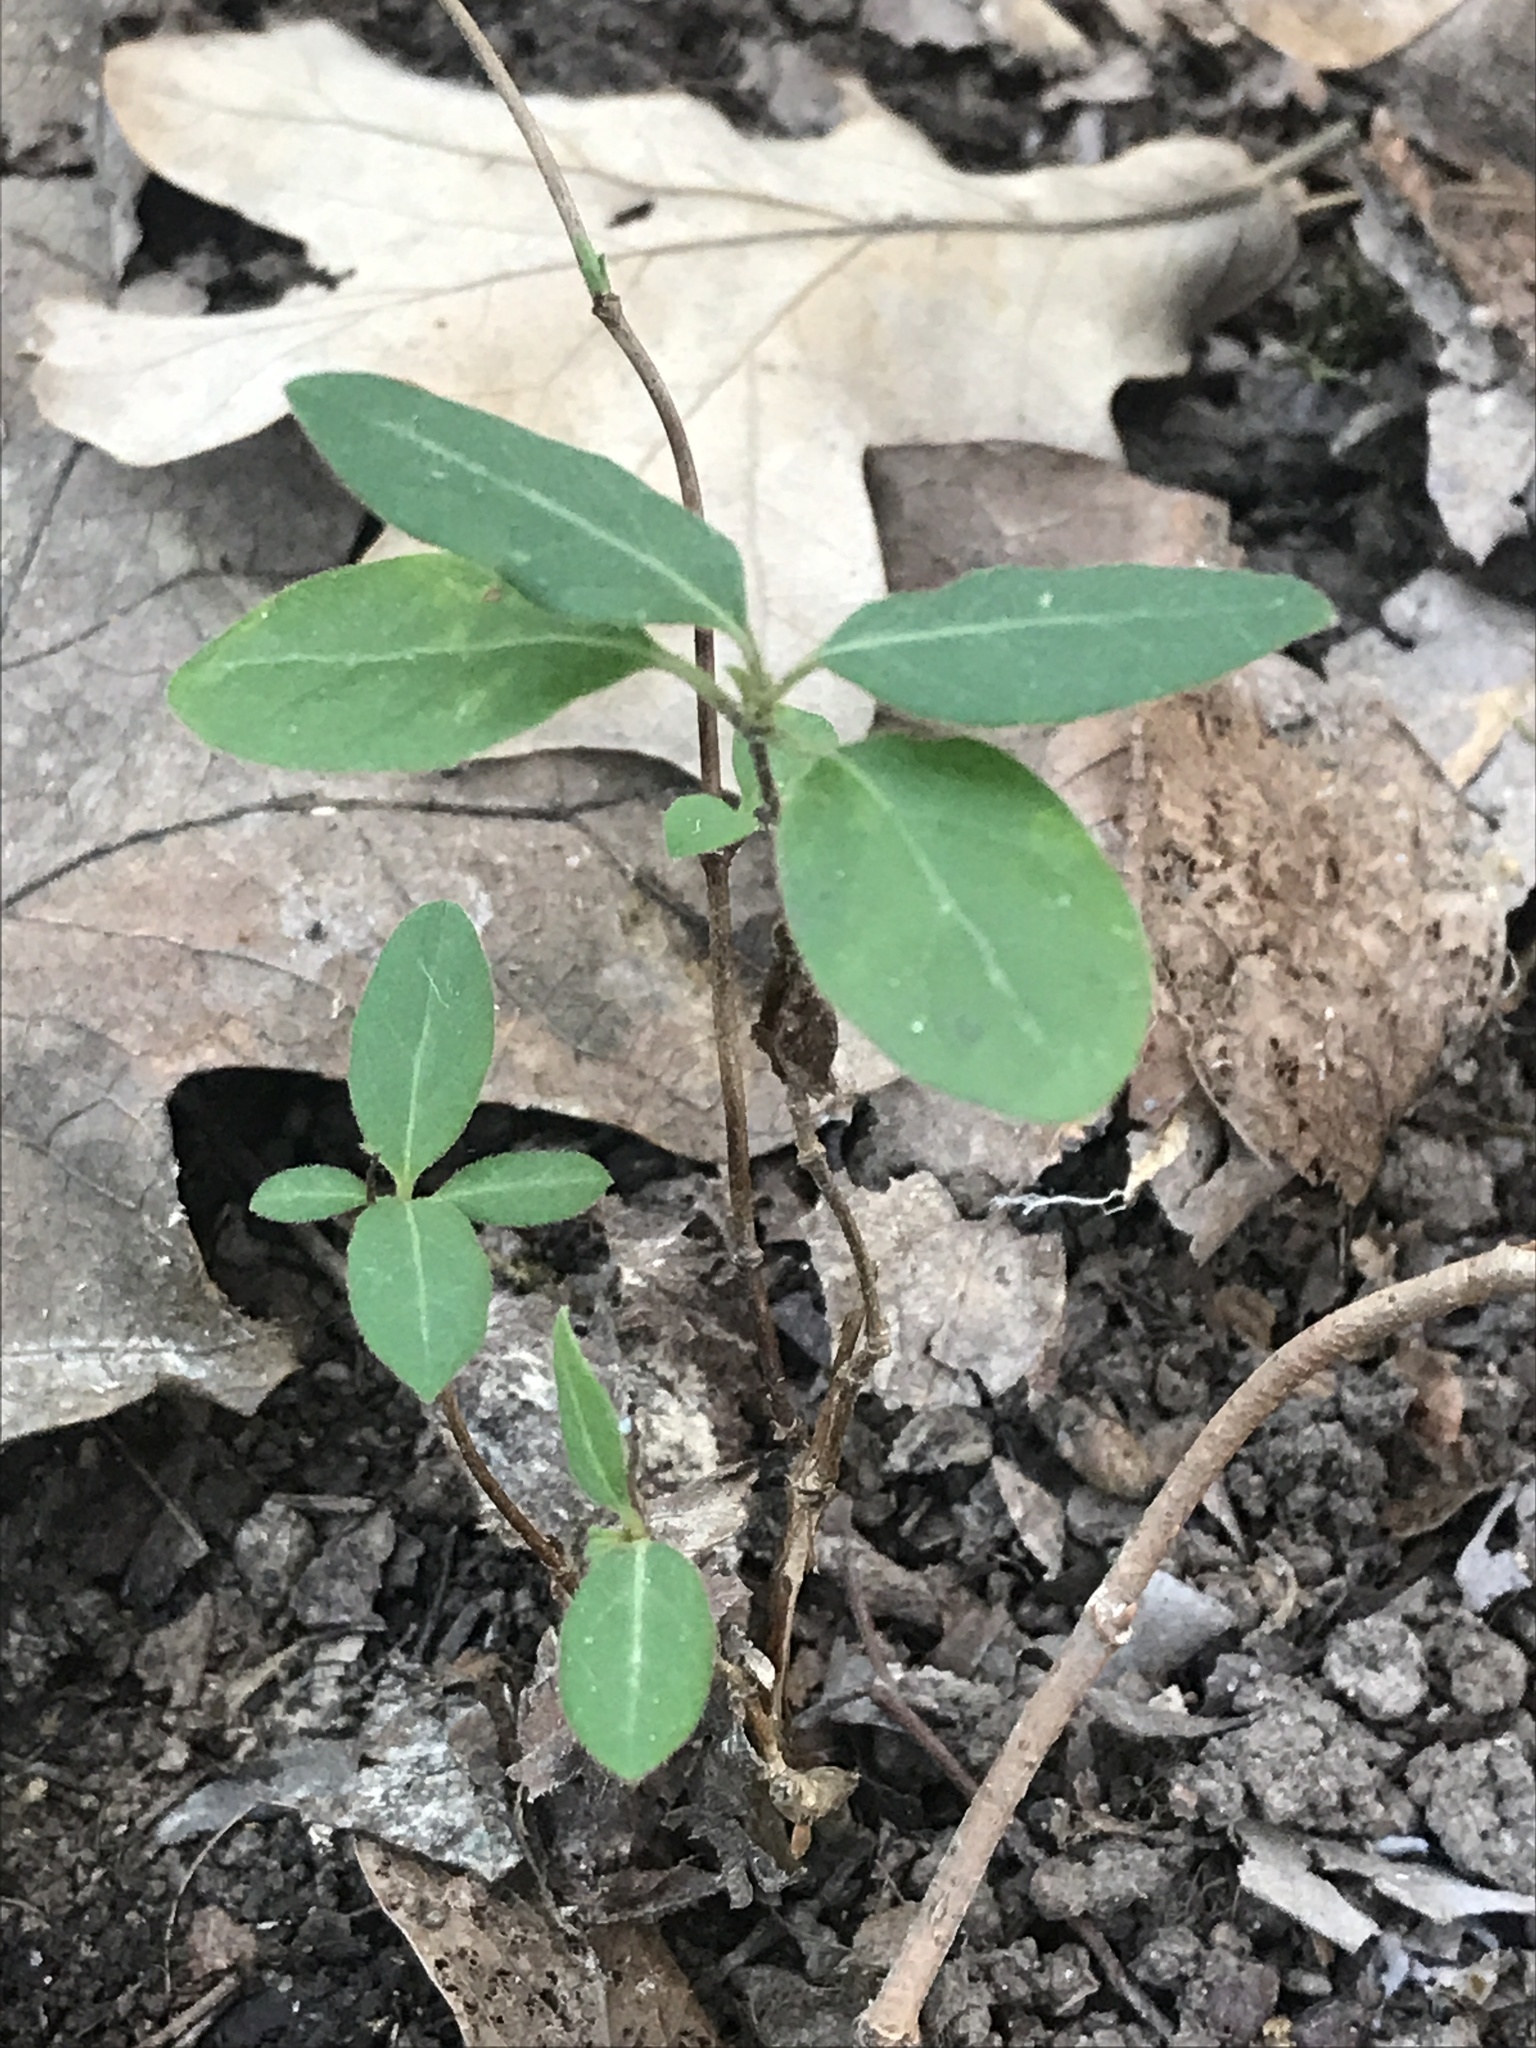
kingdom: Plantae
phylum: Tracheophyta
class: Magnoliopsida
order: Dipsacales
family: Caprifoliaceae
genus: Lonicera
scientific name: Lonicera japonica
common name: Japanese honeysuckle
